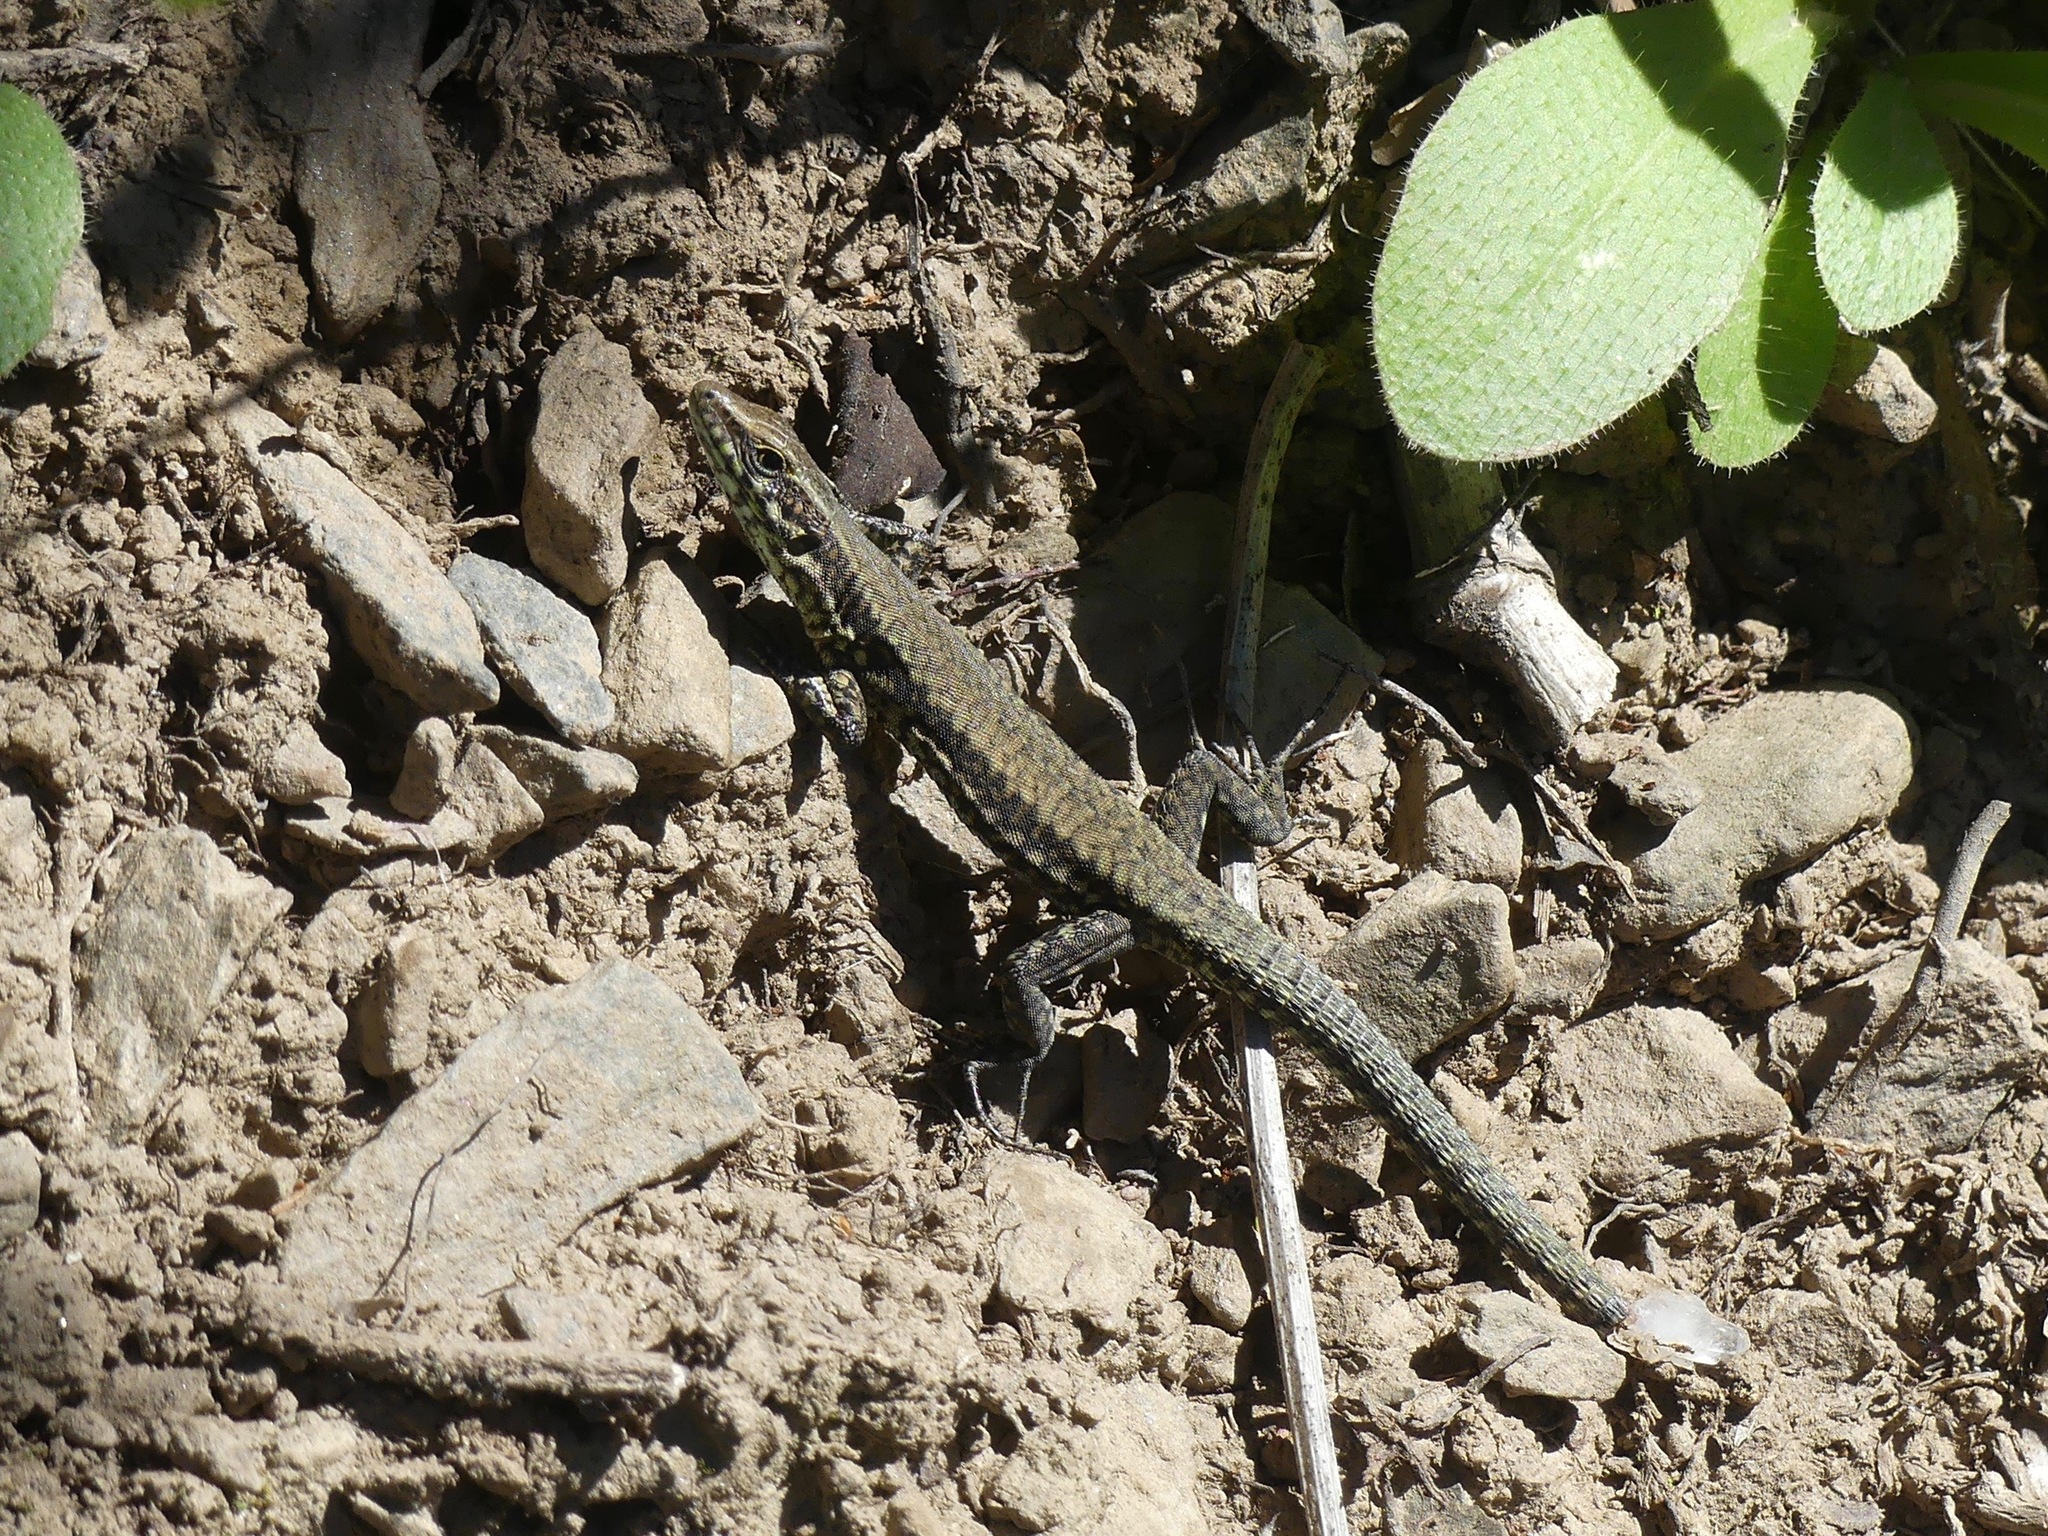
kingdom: Animalia
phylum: Chordata
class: Squamata
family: Lacertidae
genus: Podarcis
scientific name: Podarcis muralis
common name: Common wall lizard
